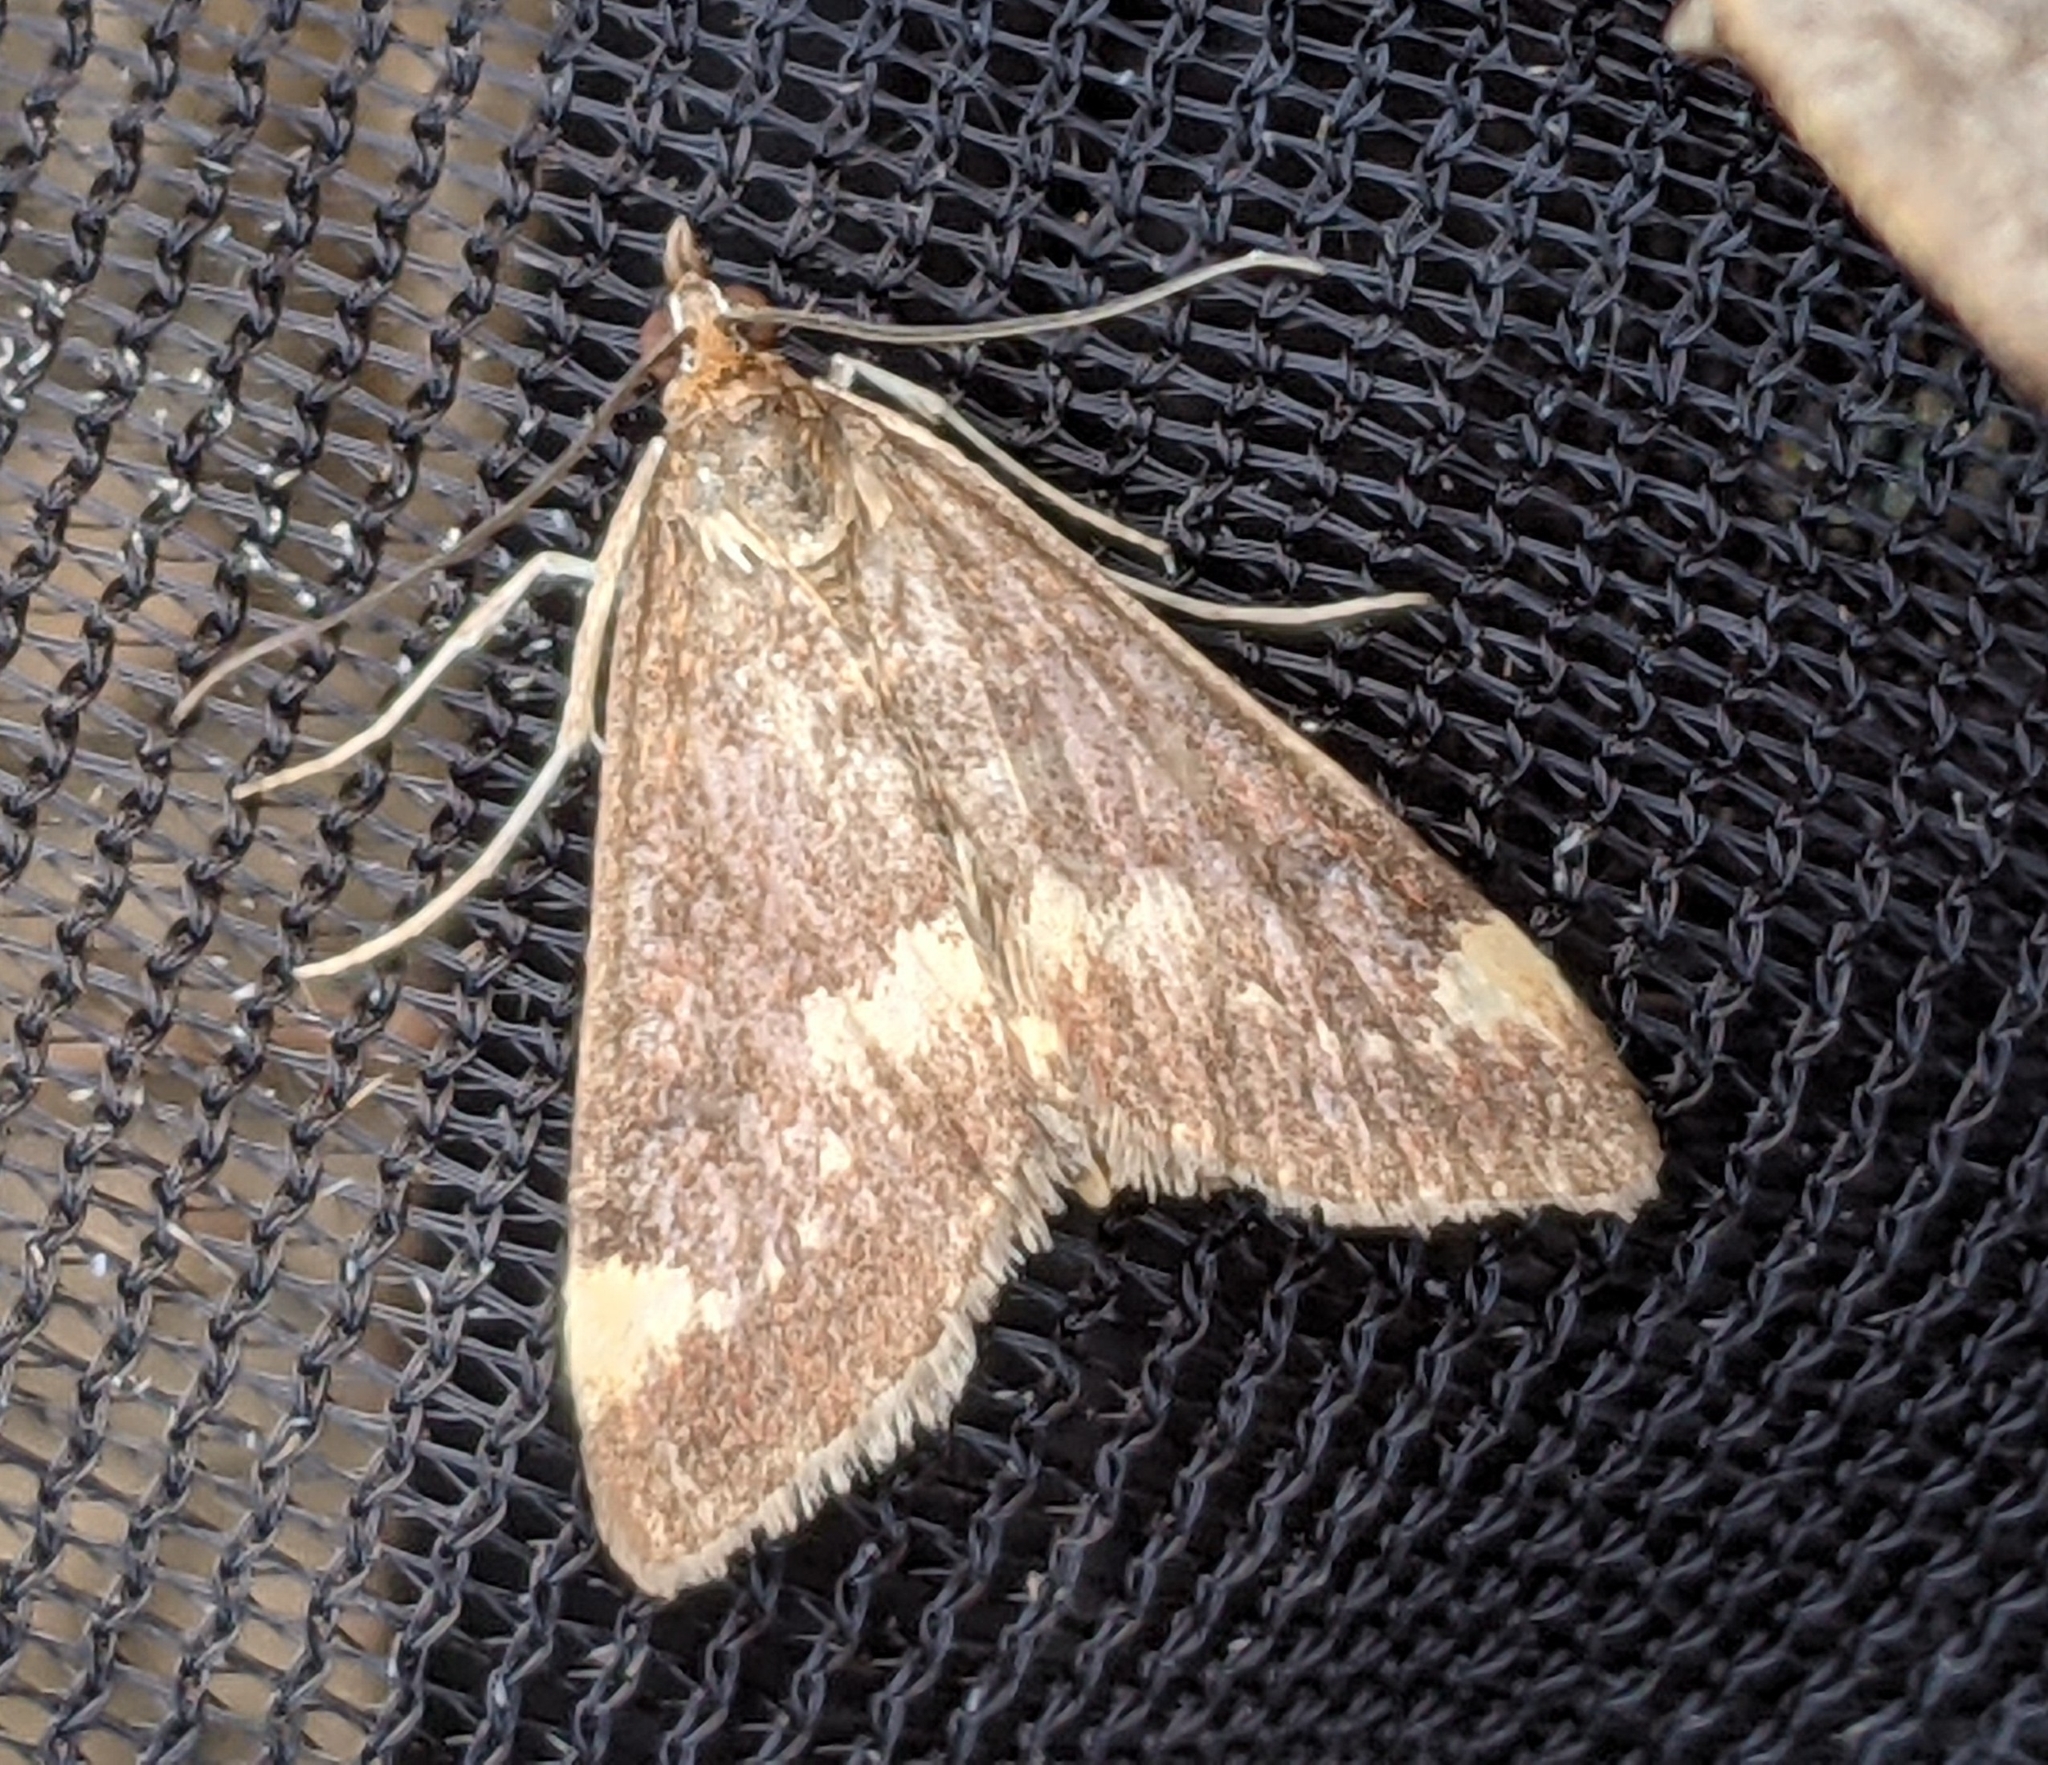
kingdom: Animalia
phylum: Arthropoda
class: Insecta
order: Lepidoptera
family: Crambidae
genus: Pyrausta
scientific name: Pyrausta nicalis
